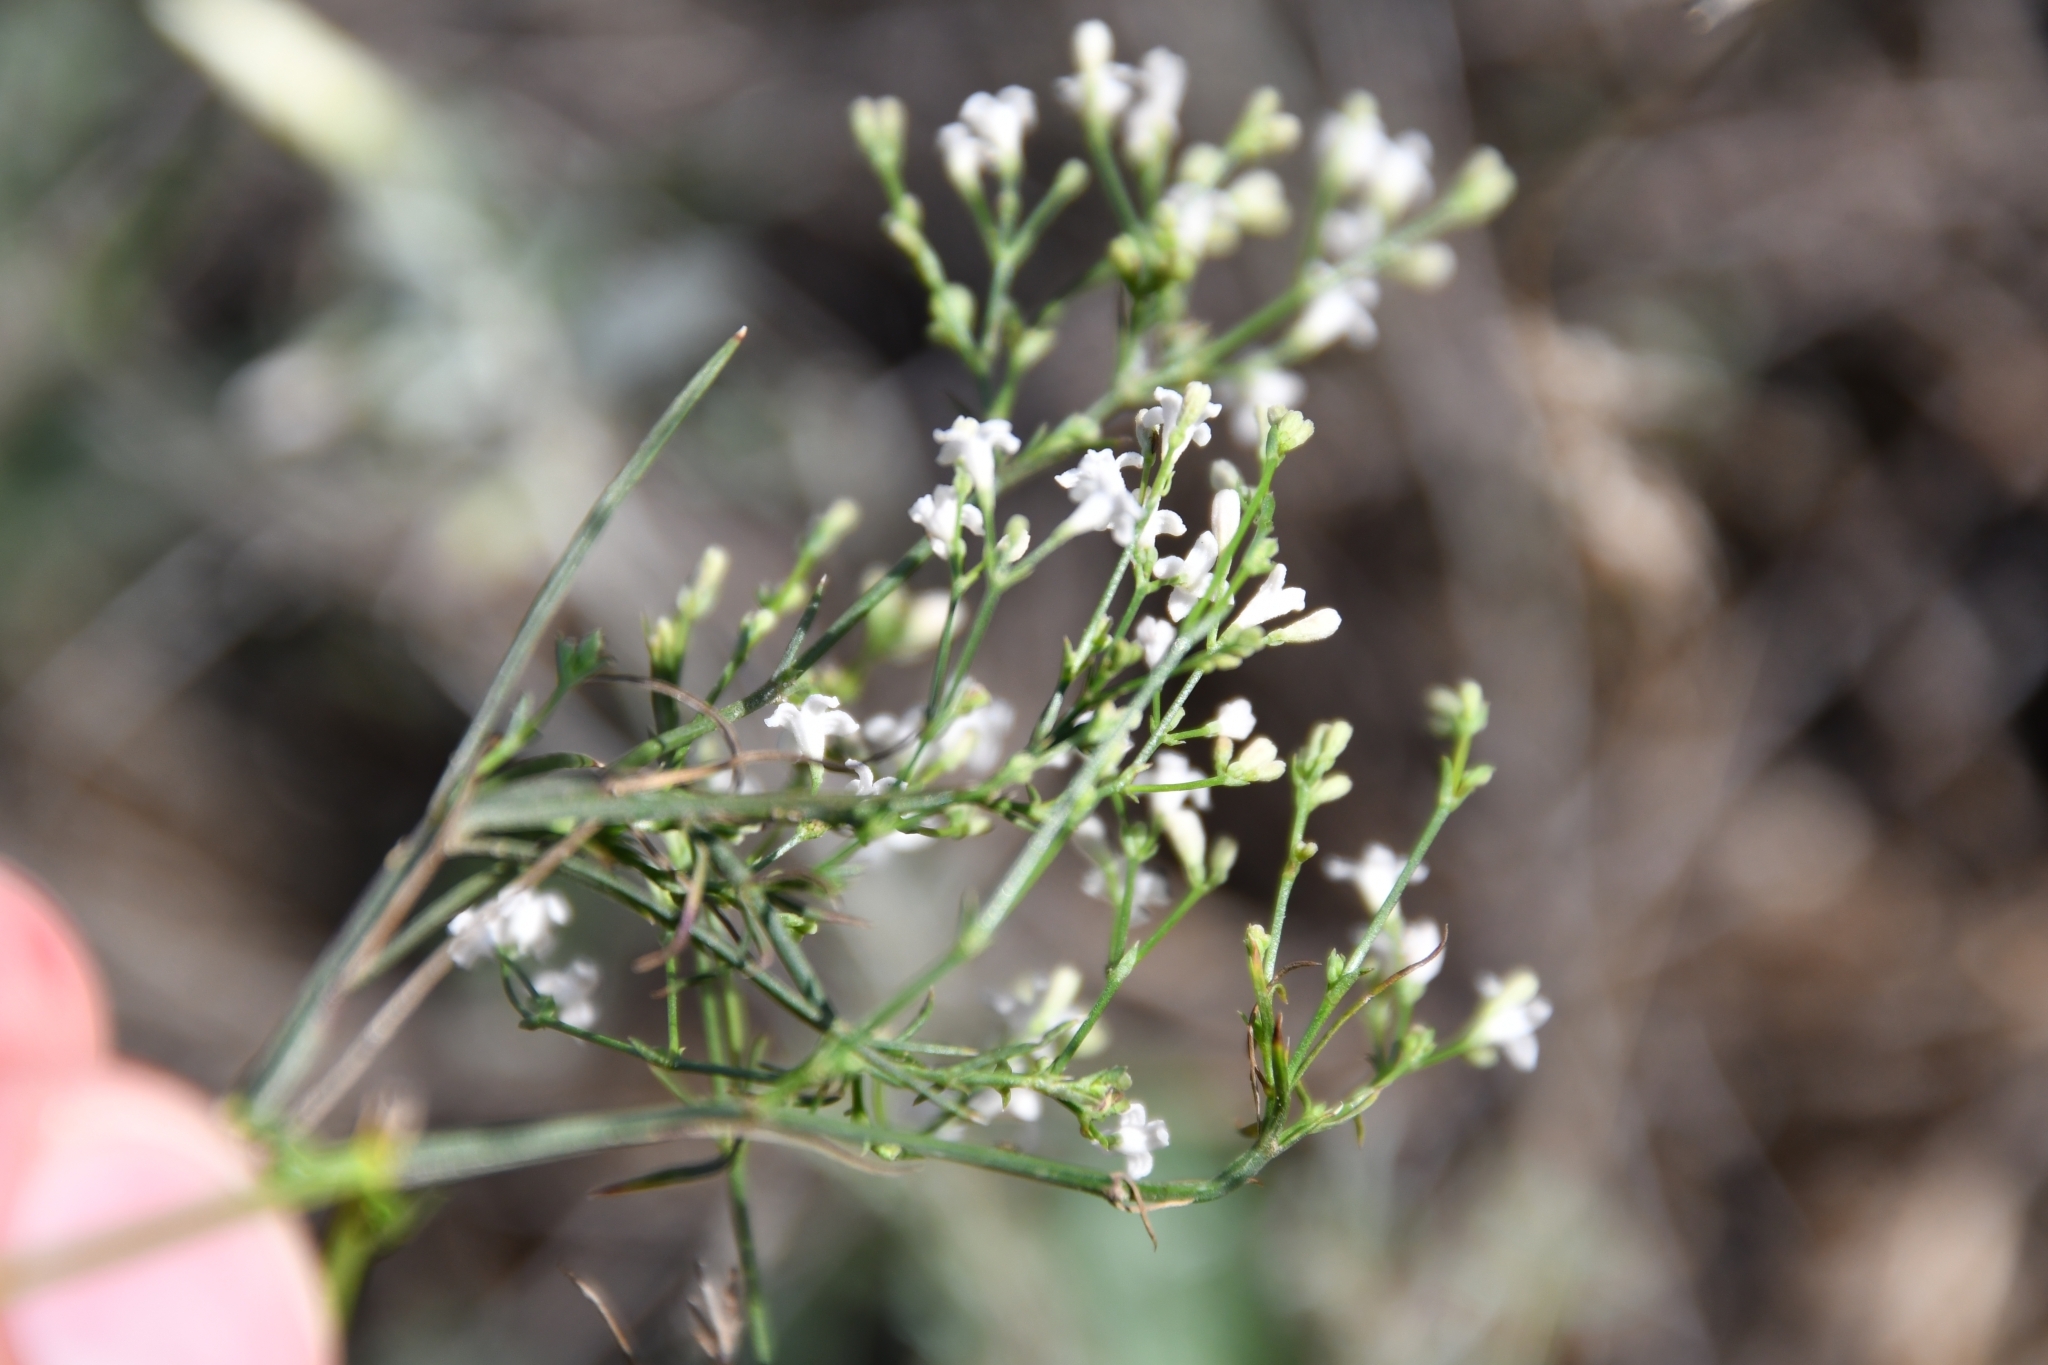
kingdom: Plantae
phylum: Tracheophyta
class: Magnoliopsida
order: Gentianales
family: Rubiaceae
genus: Cynanchica
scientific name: Cynanchica pyrenaica
